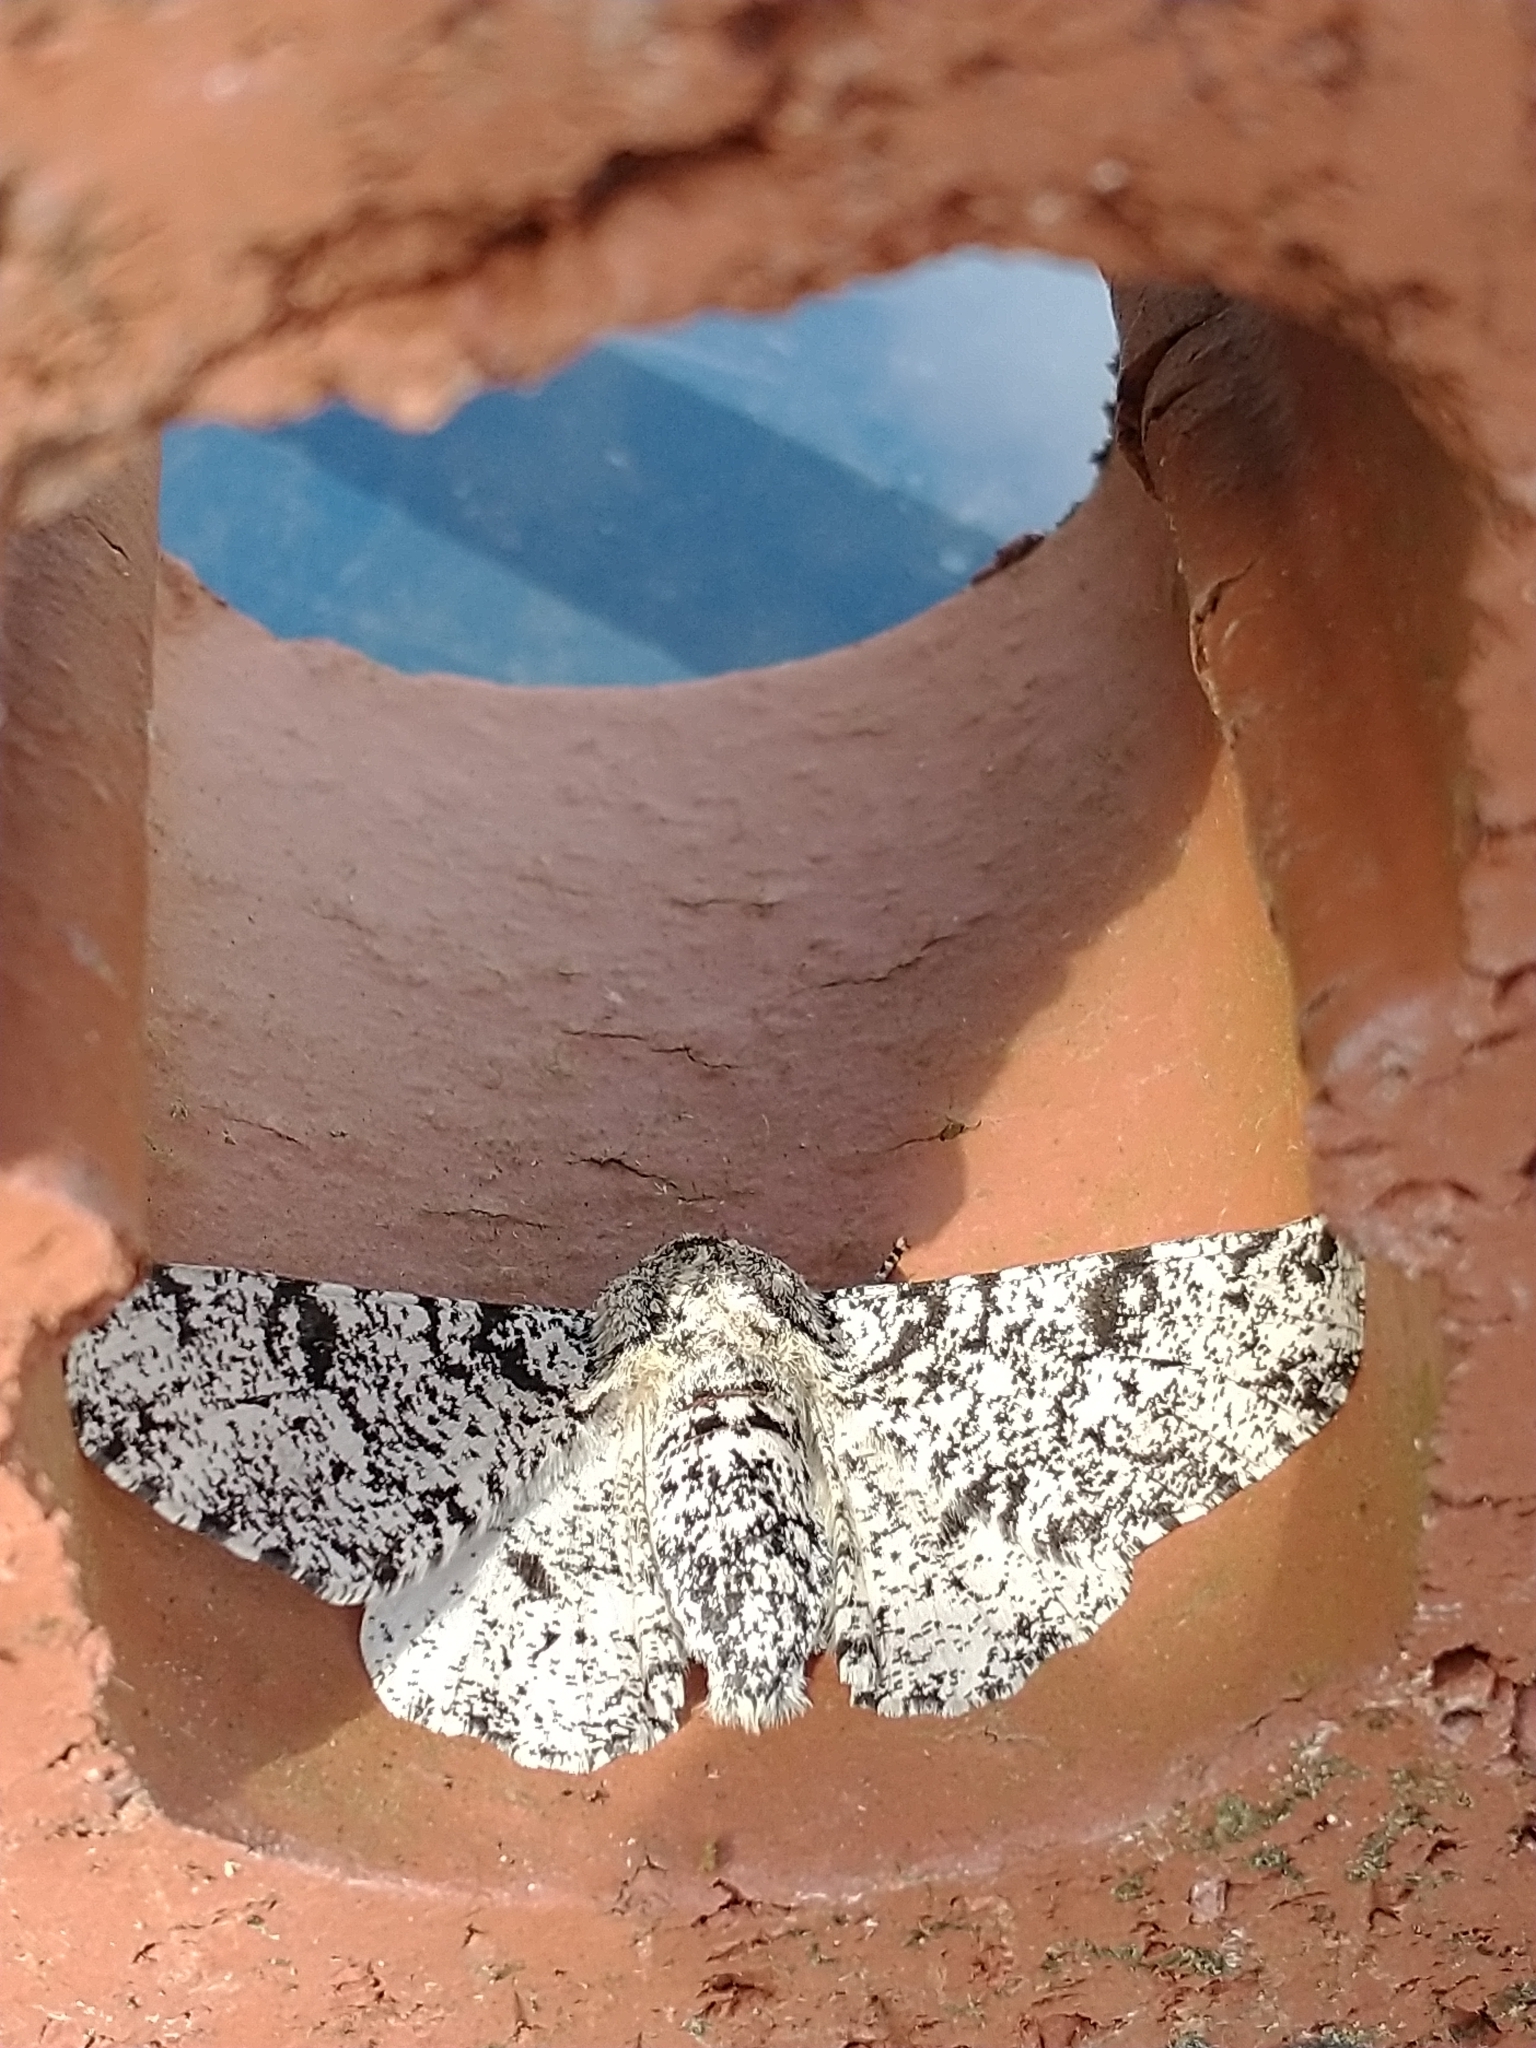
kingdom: Animalia
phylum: Arthropoda
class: Insecta
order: Lepidoptera
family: Geometridae
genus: Biston
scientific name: Biston betularia
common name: Peppered moth
